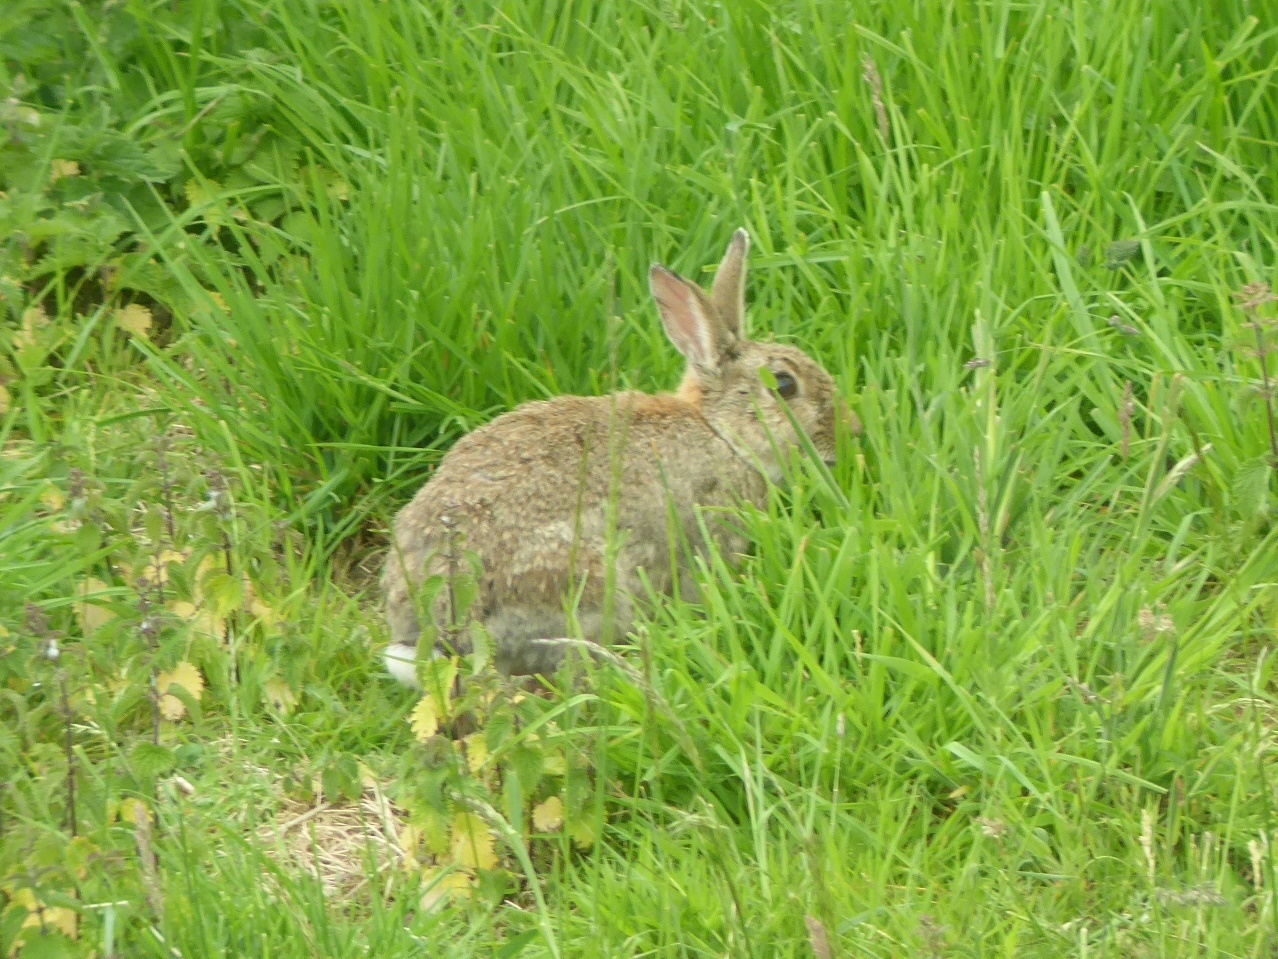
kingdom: Animalia
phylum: Chordata
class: Mammalia
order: Lagomorpha
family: Leporidae
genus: Oryctolagus
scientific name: Oryctolagus cuniculus
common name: European rabbit
